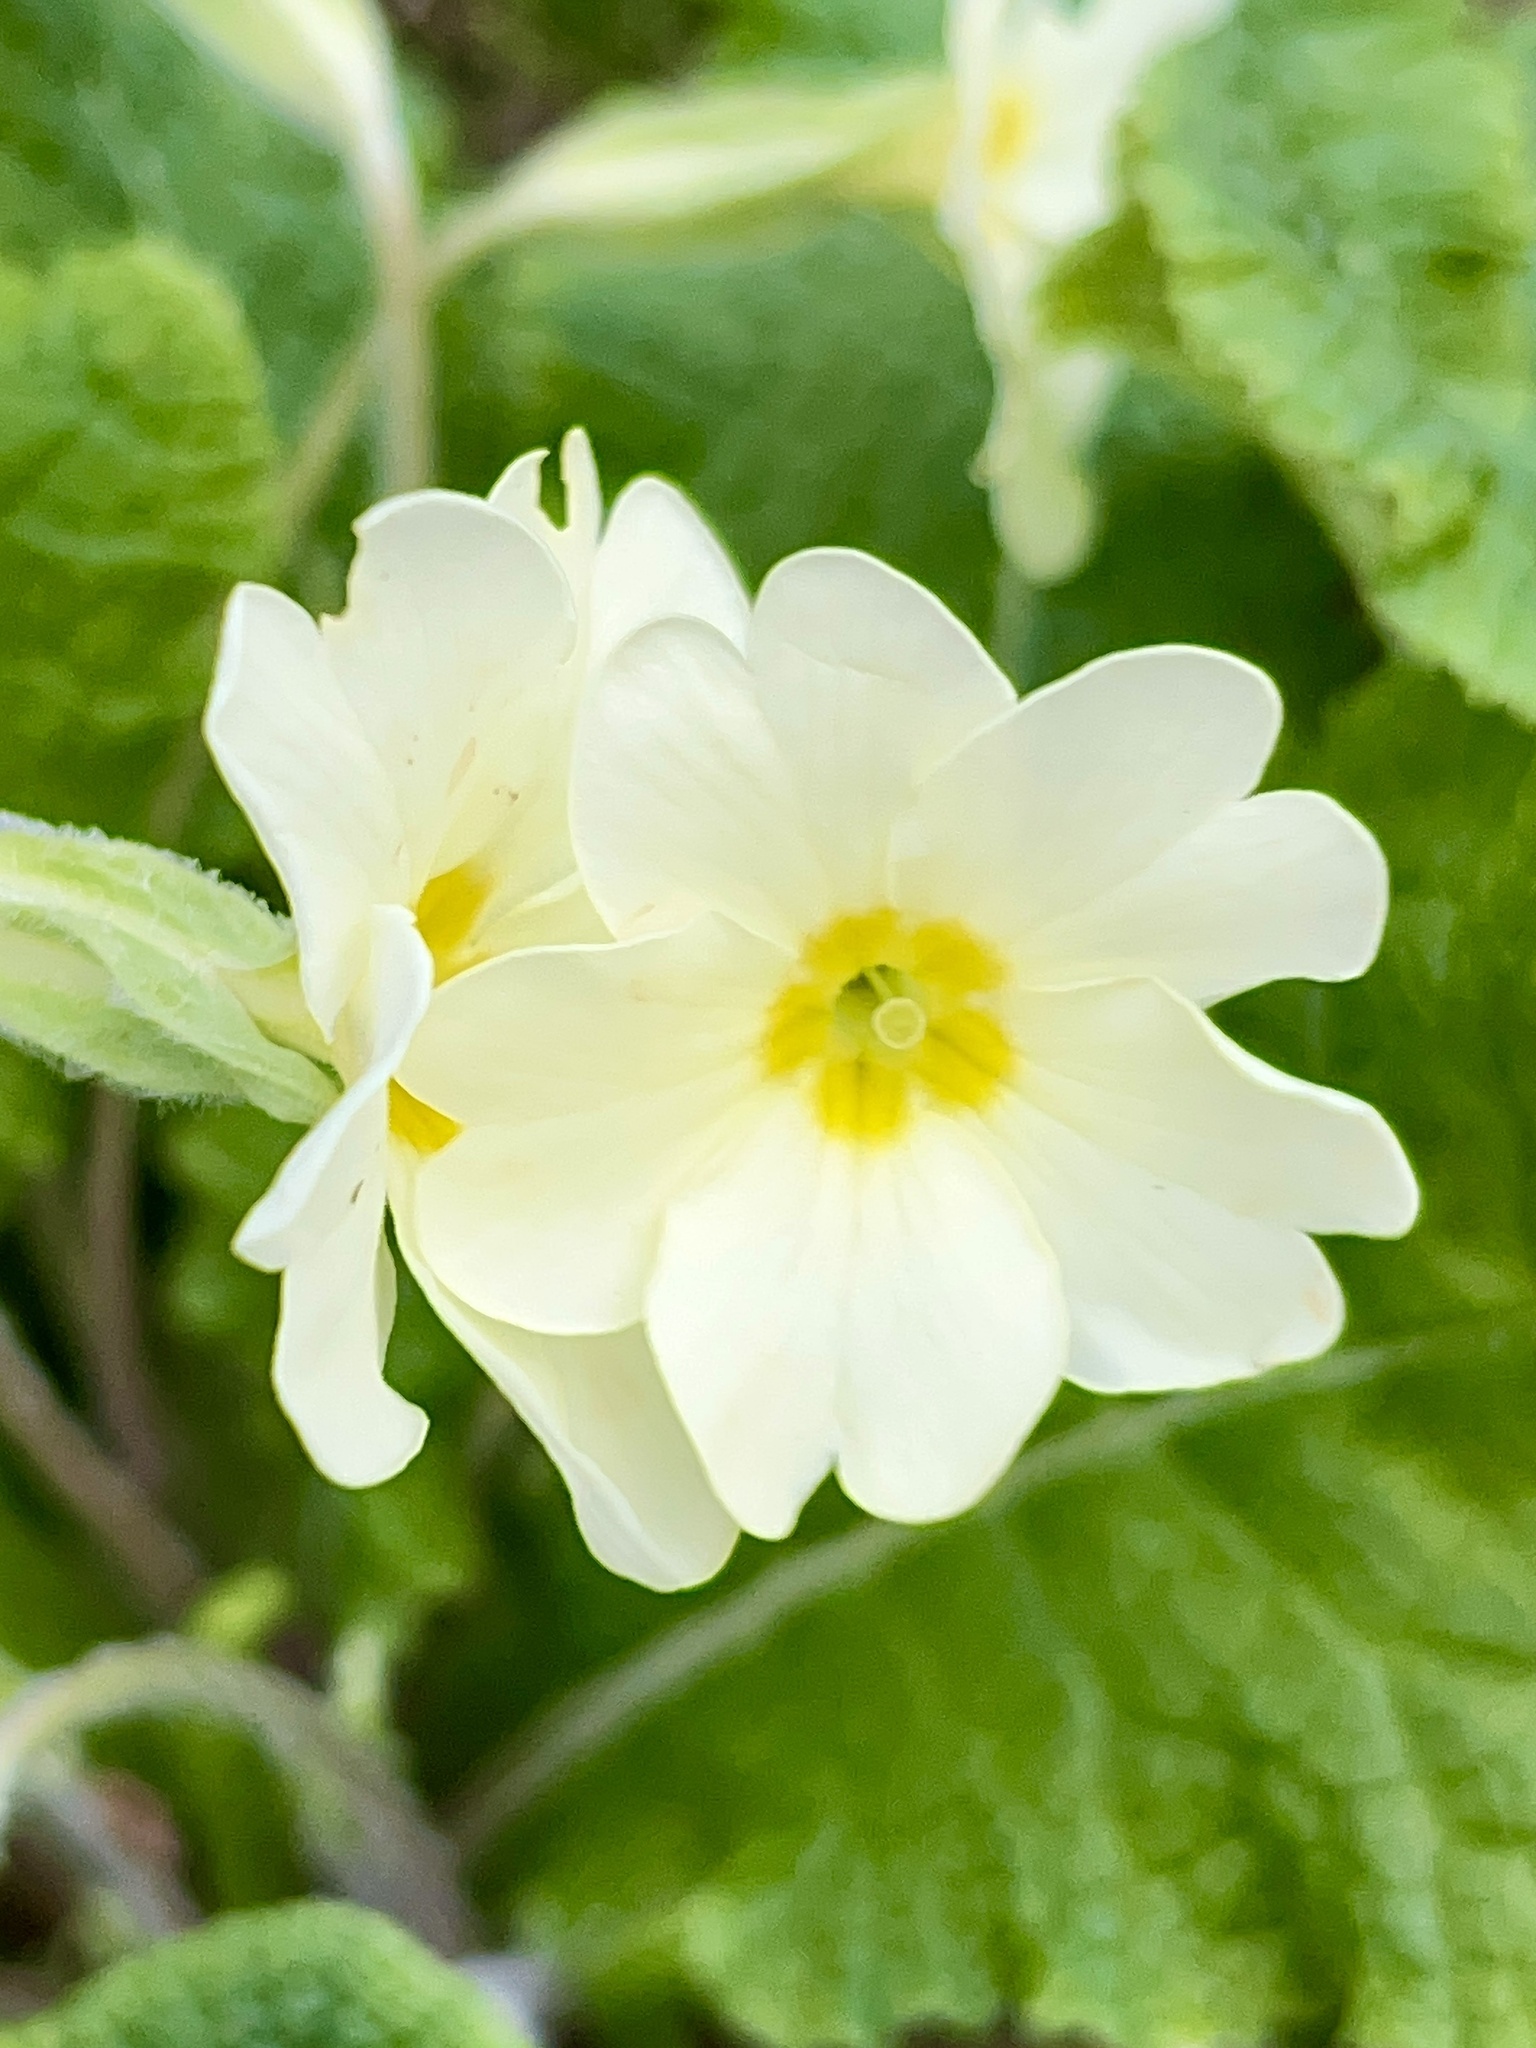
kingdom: Plantae
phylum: Tracheophyta
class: Magnoliopsida
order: Ericales
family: Primulaceae
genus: Primula
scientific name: Primula vulgaris
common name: Primrose
